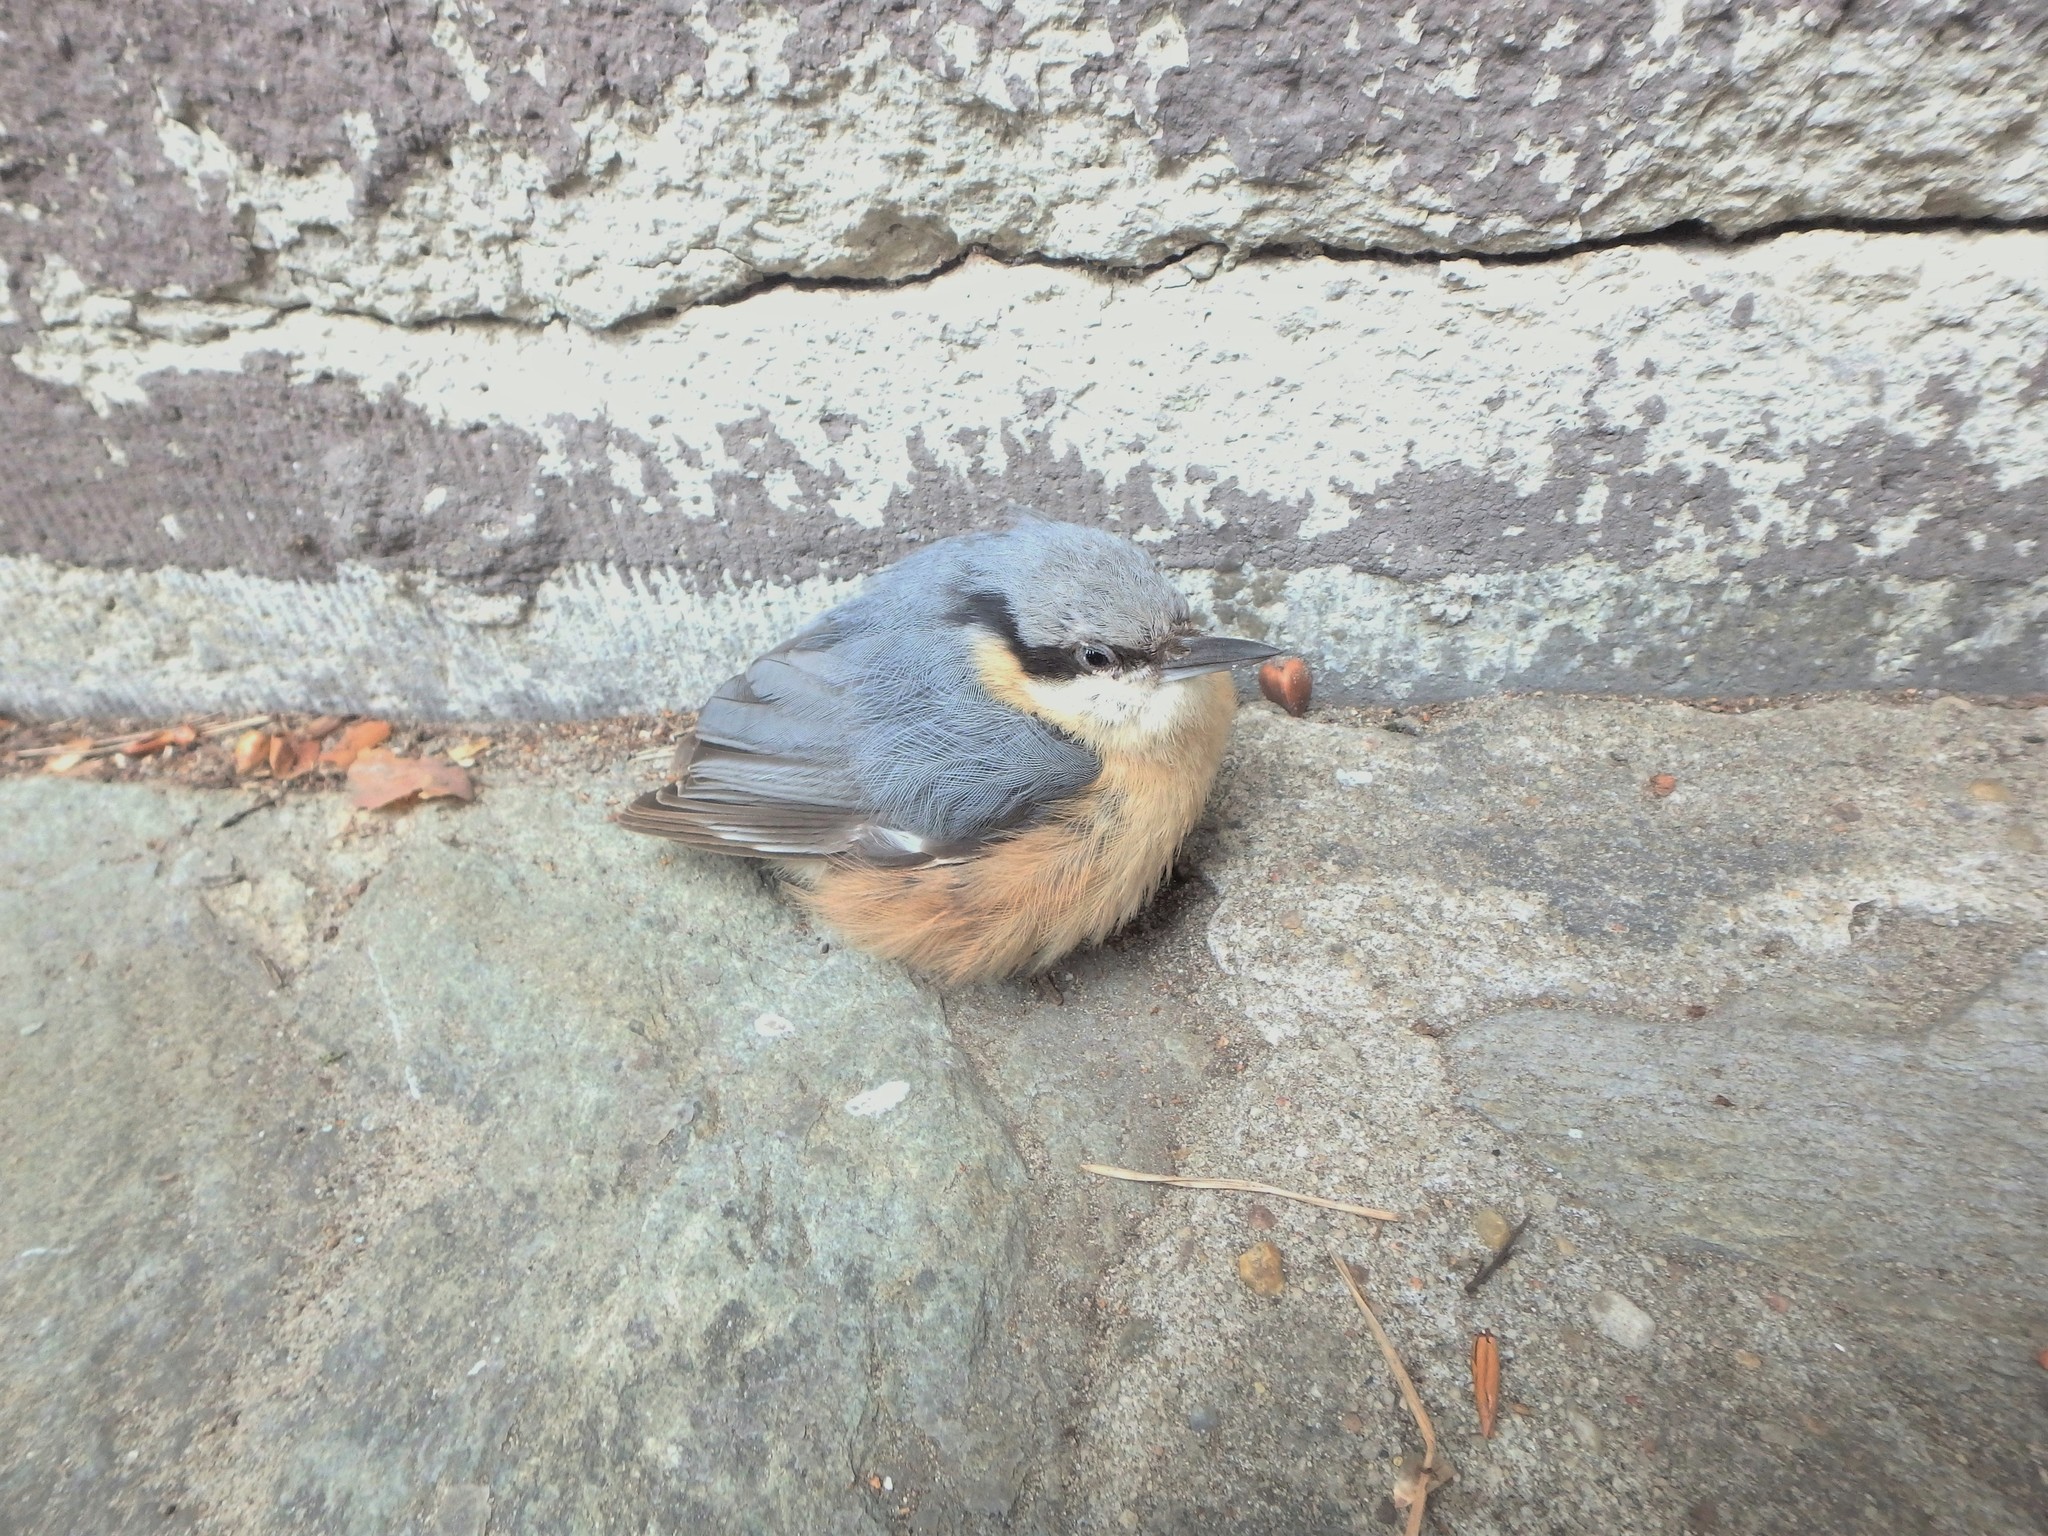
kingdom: Animalia
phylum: Chordata
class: Aves
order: Passeriformes
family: Sittidae
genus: Sitta
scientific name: Sitta europaea
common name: Eurasian nuthatch
